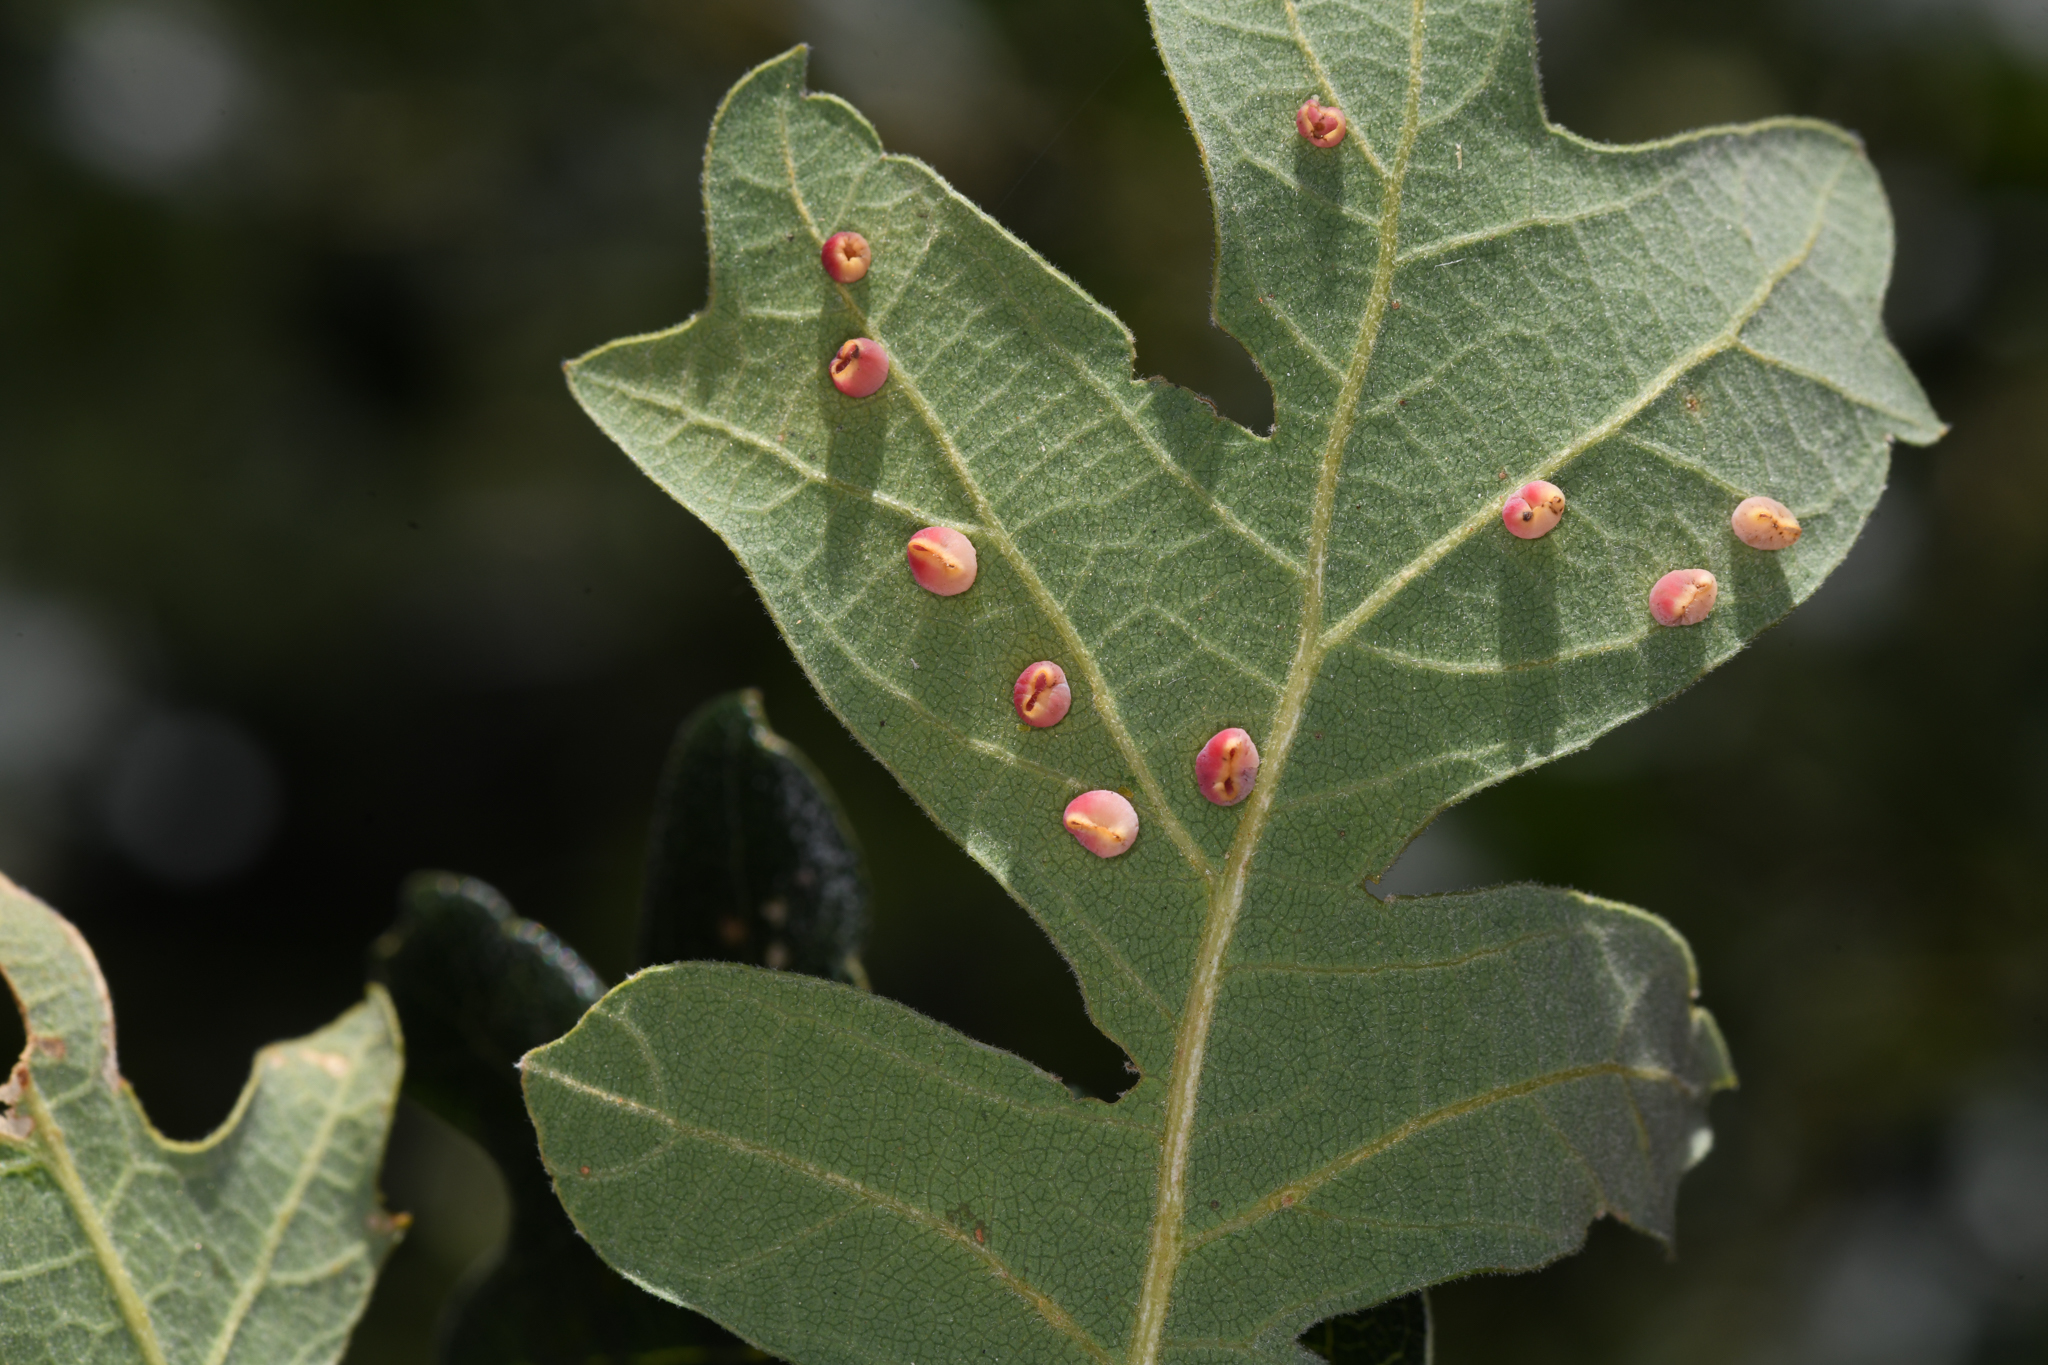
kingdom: Animalia
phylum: Arthropoda
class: Insecta
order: Hymenoptera
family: Cynipidae
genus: Andricus
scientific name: Andricus
